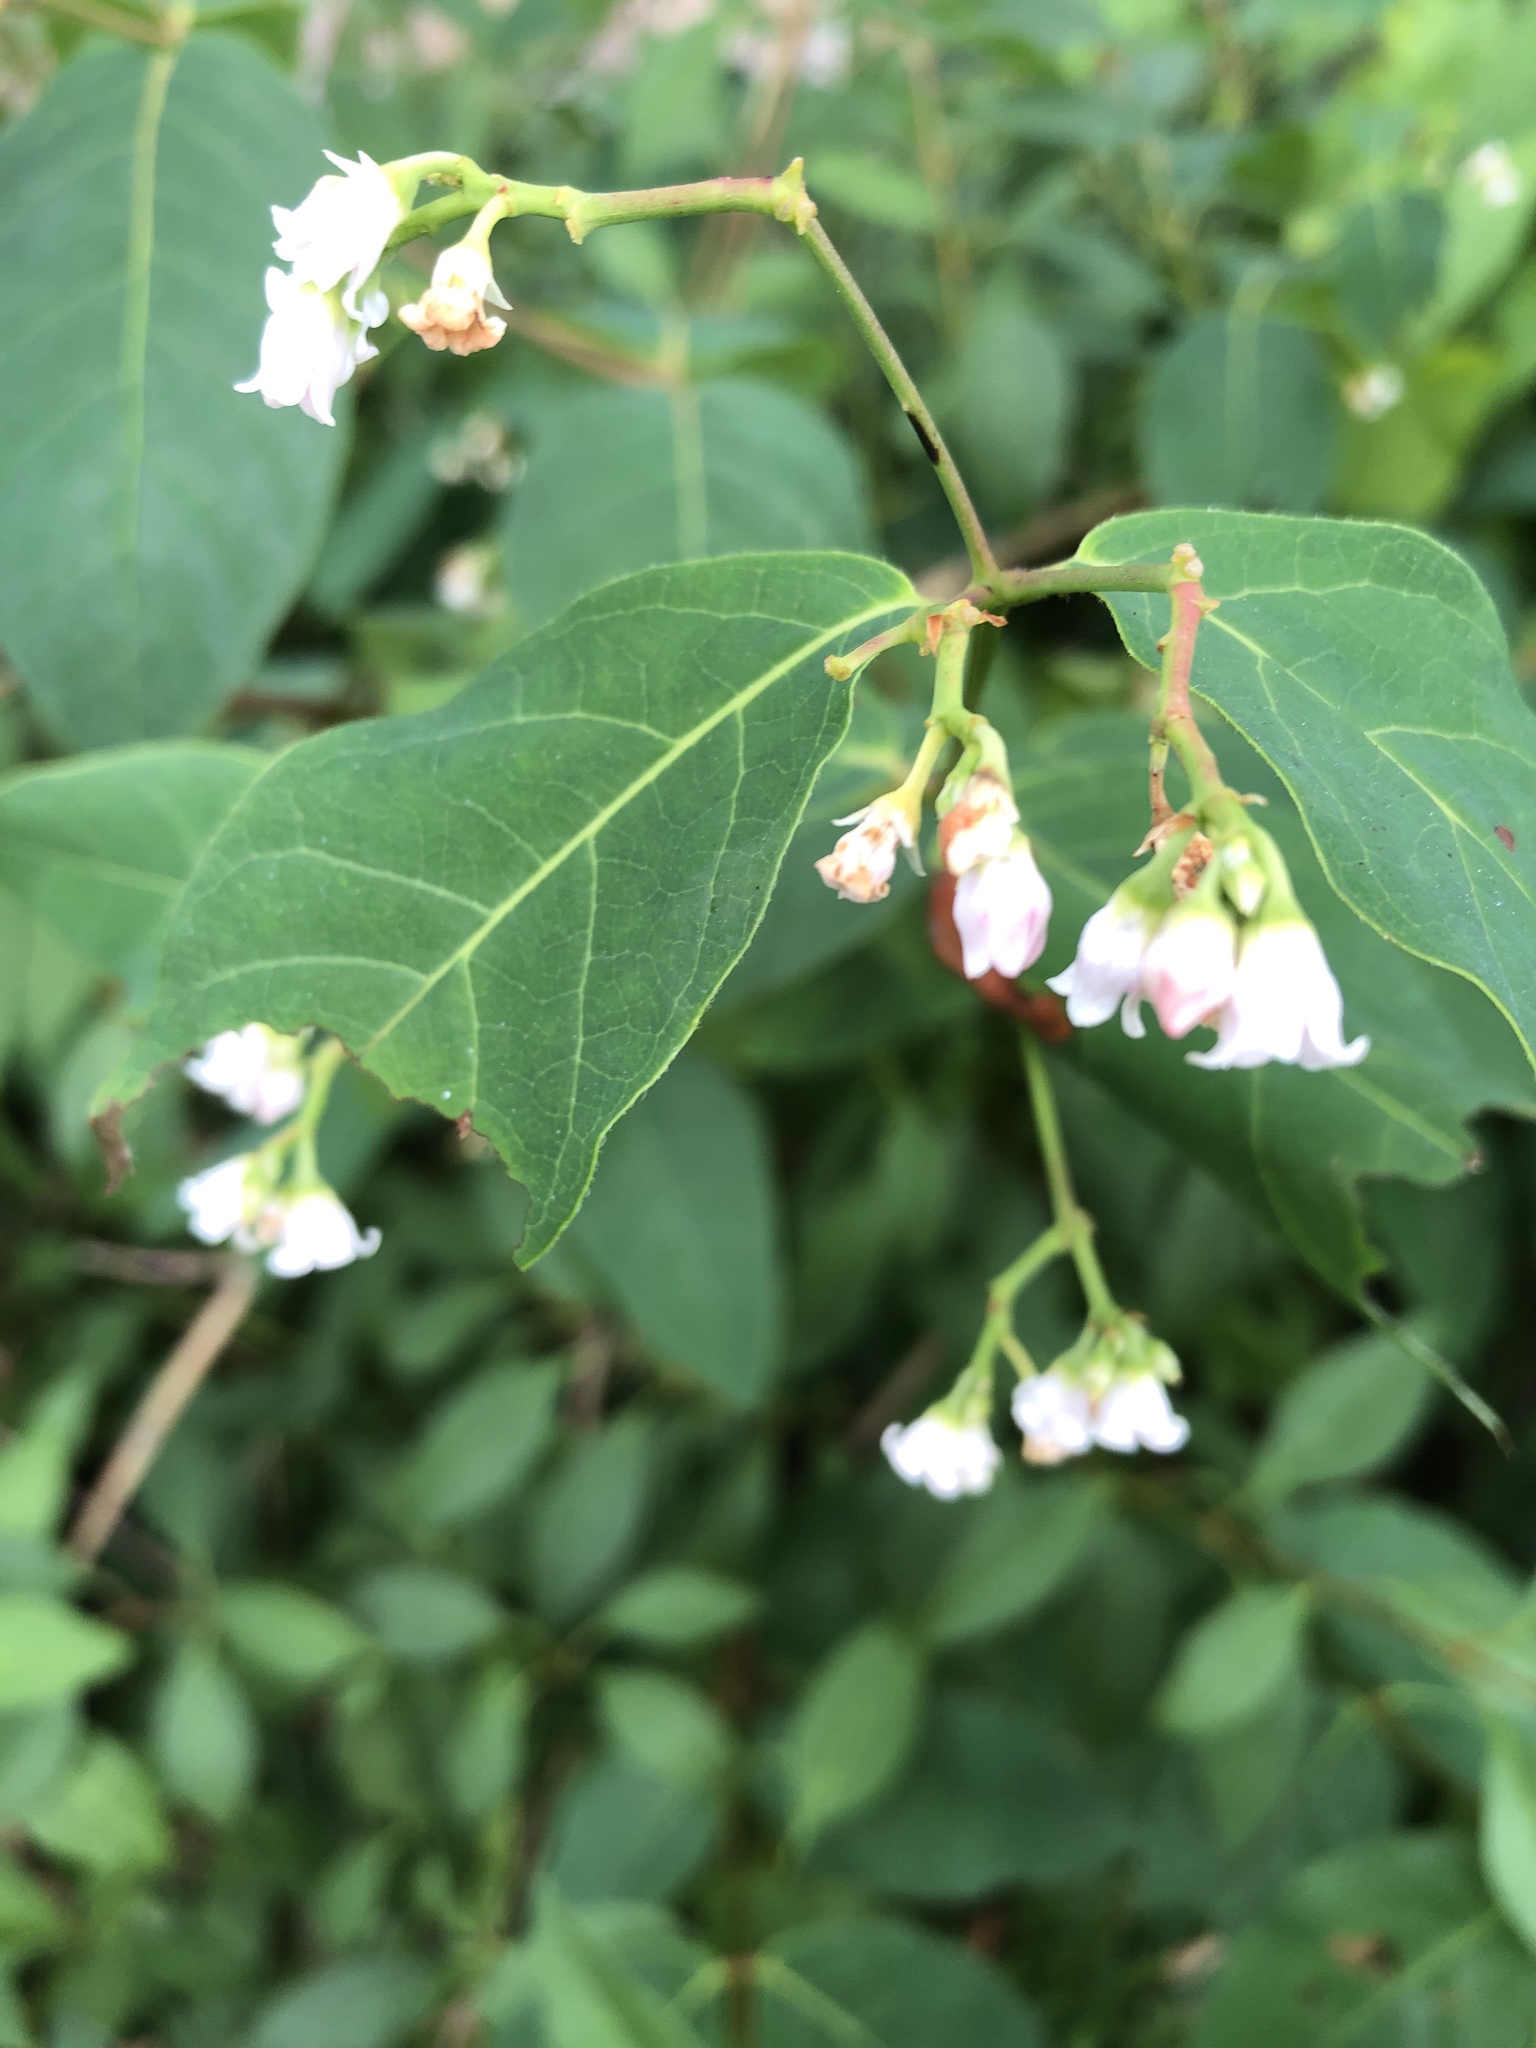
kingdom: Plantae
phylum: Tracheophyta
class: Magnoliopsida
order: Gentianales
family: Apocynaceae
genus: Apocynum
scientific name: Apocynum androsaemifolium
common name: Spreading dogbane
